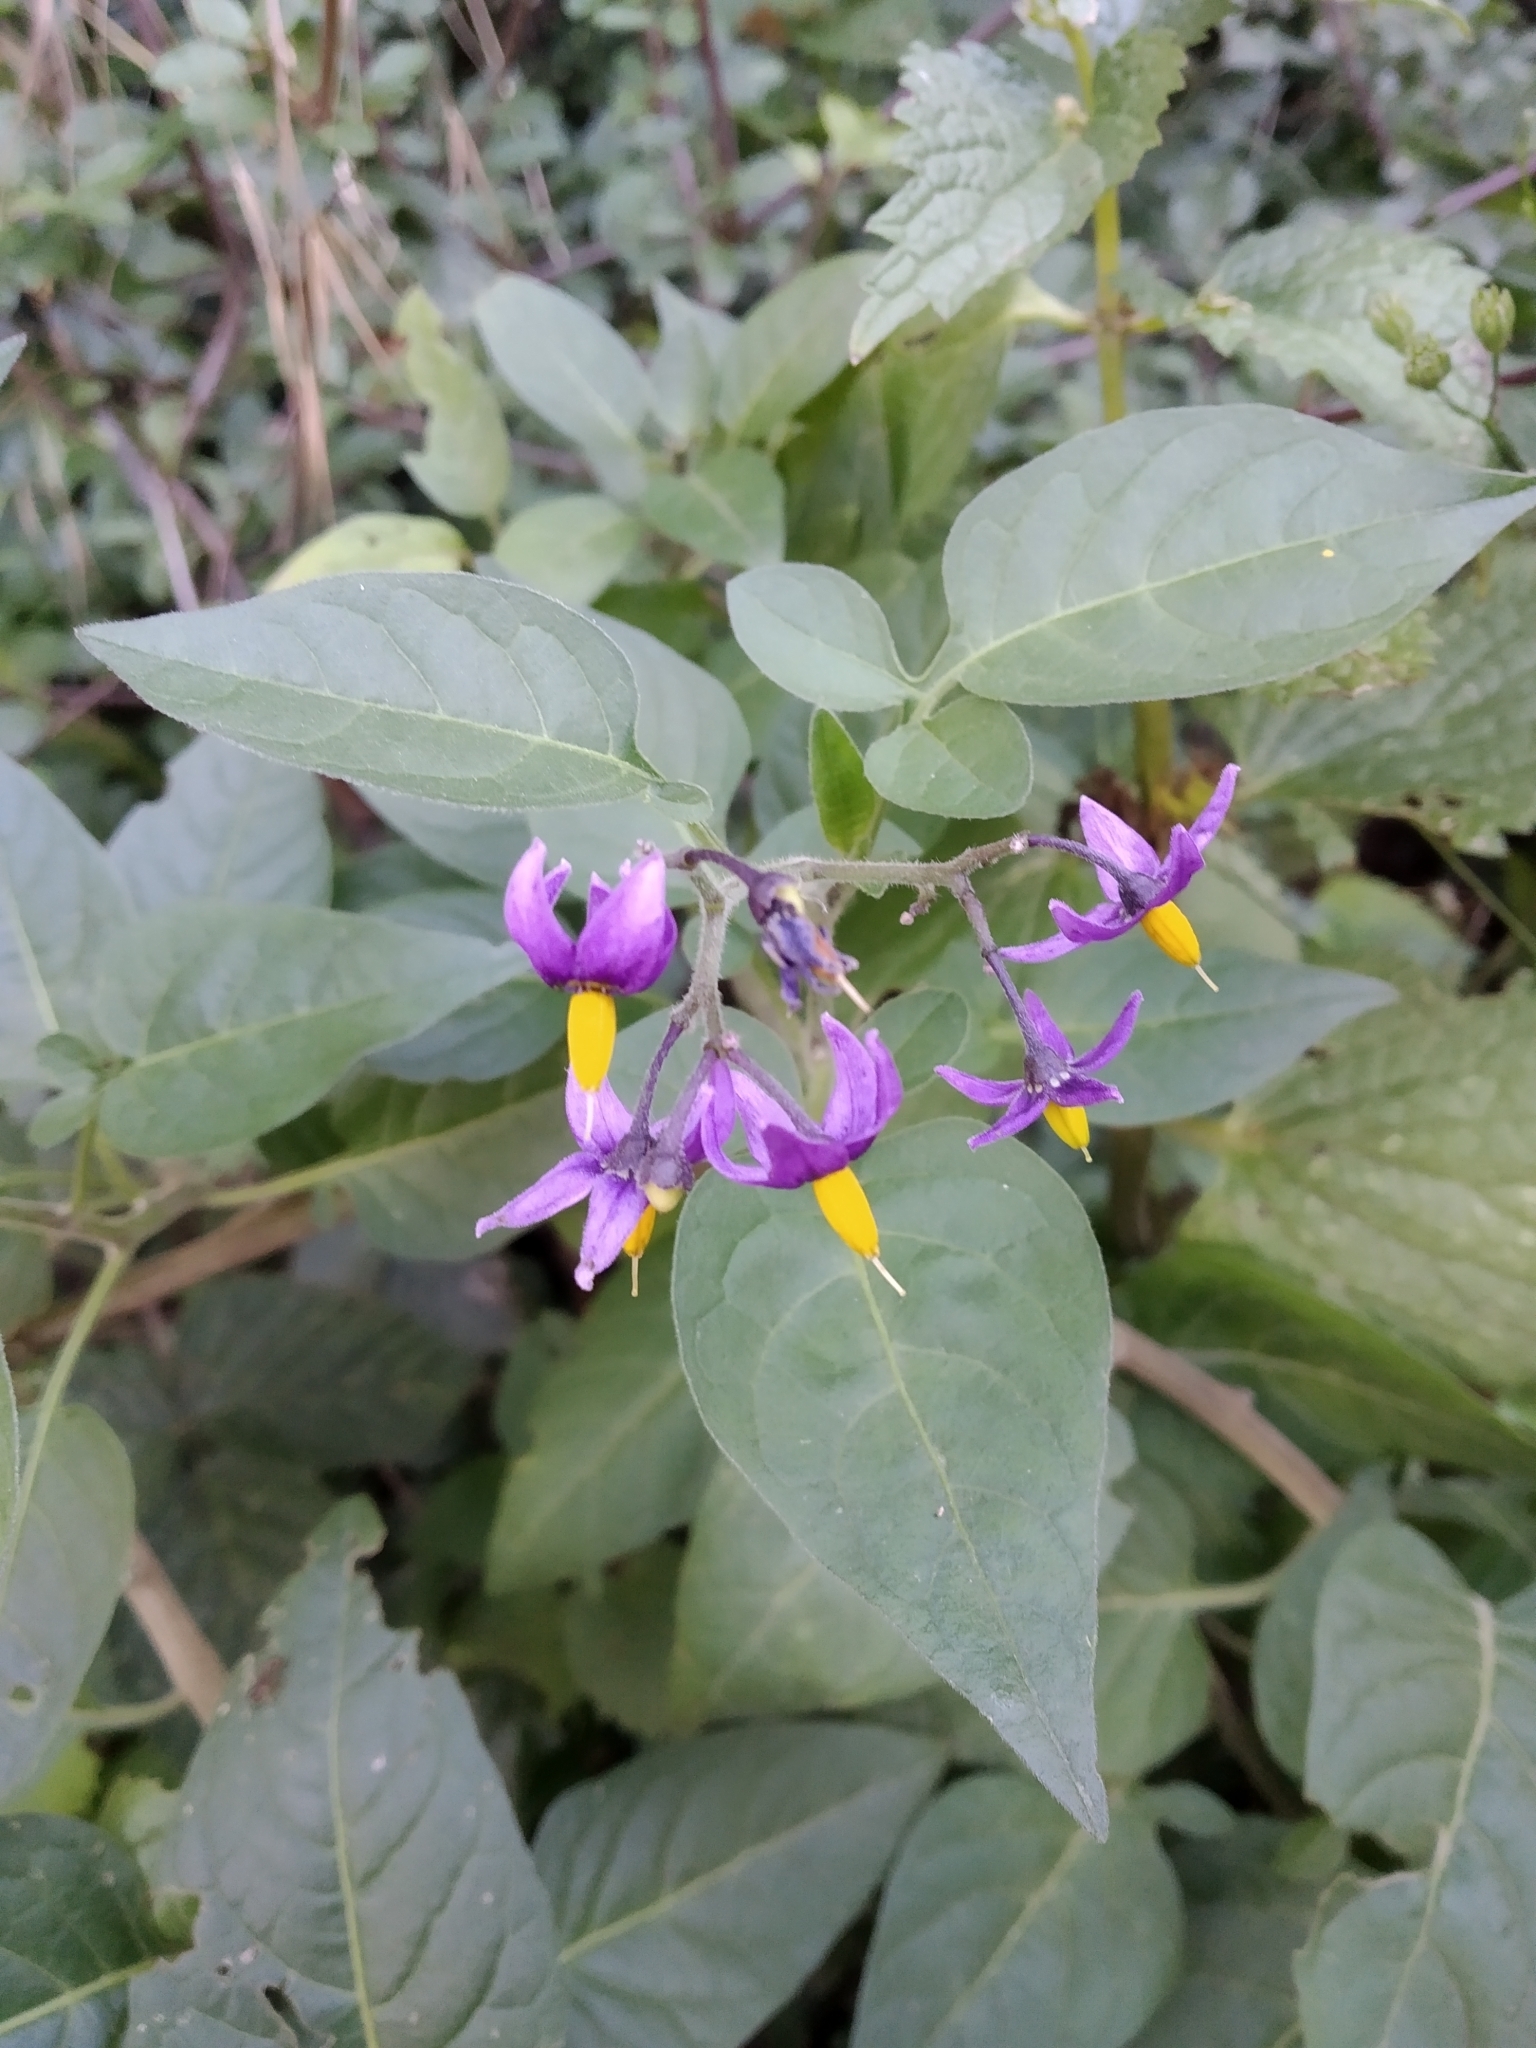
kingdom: Plantae
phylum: Tracheophyta
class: Magnoliopsida
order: Solanales
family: Solanaceae
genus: Solanum
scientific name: Solanum dulcamara
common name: Climbing nightshade
